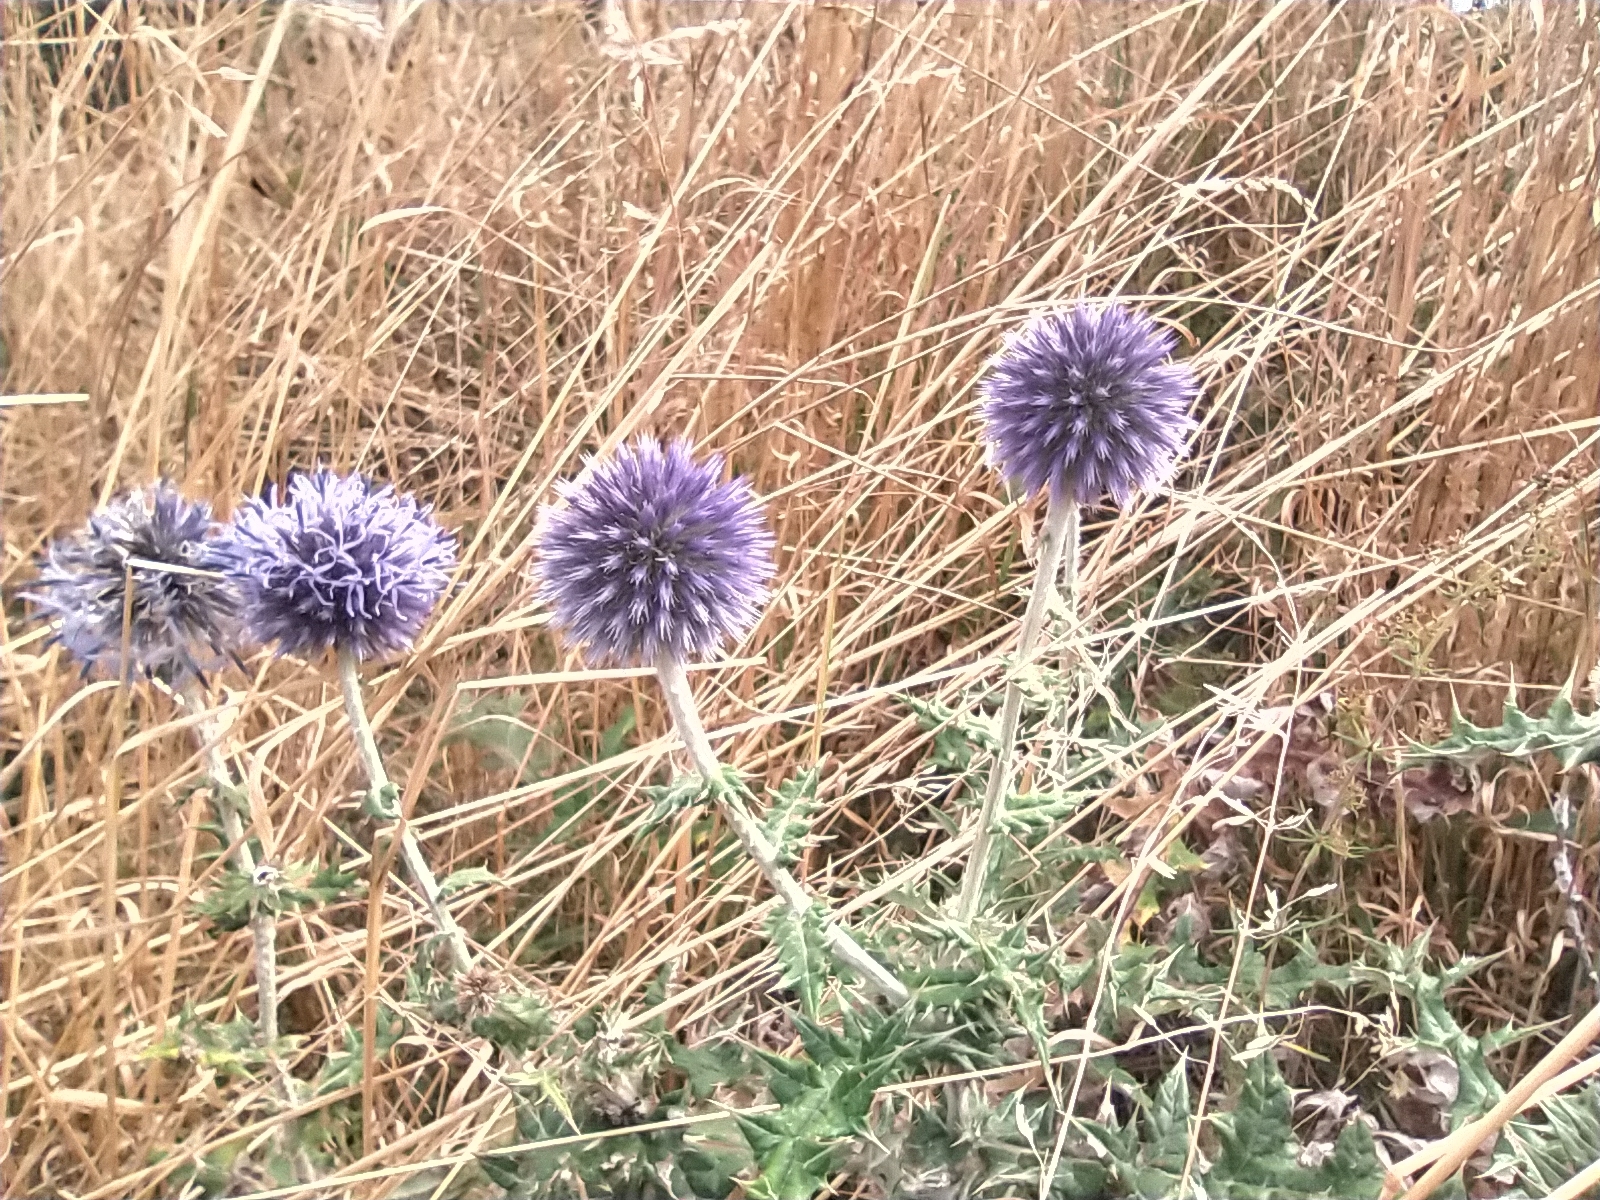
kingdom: Plantae
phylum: Tracheophyta
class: Magnoliopsida
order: Asterales
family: Asteraceae
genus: Echinops
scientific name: Echinops ritro
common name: Globe thistle
